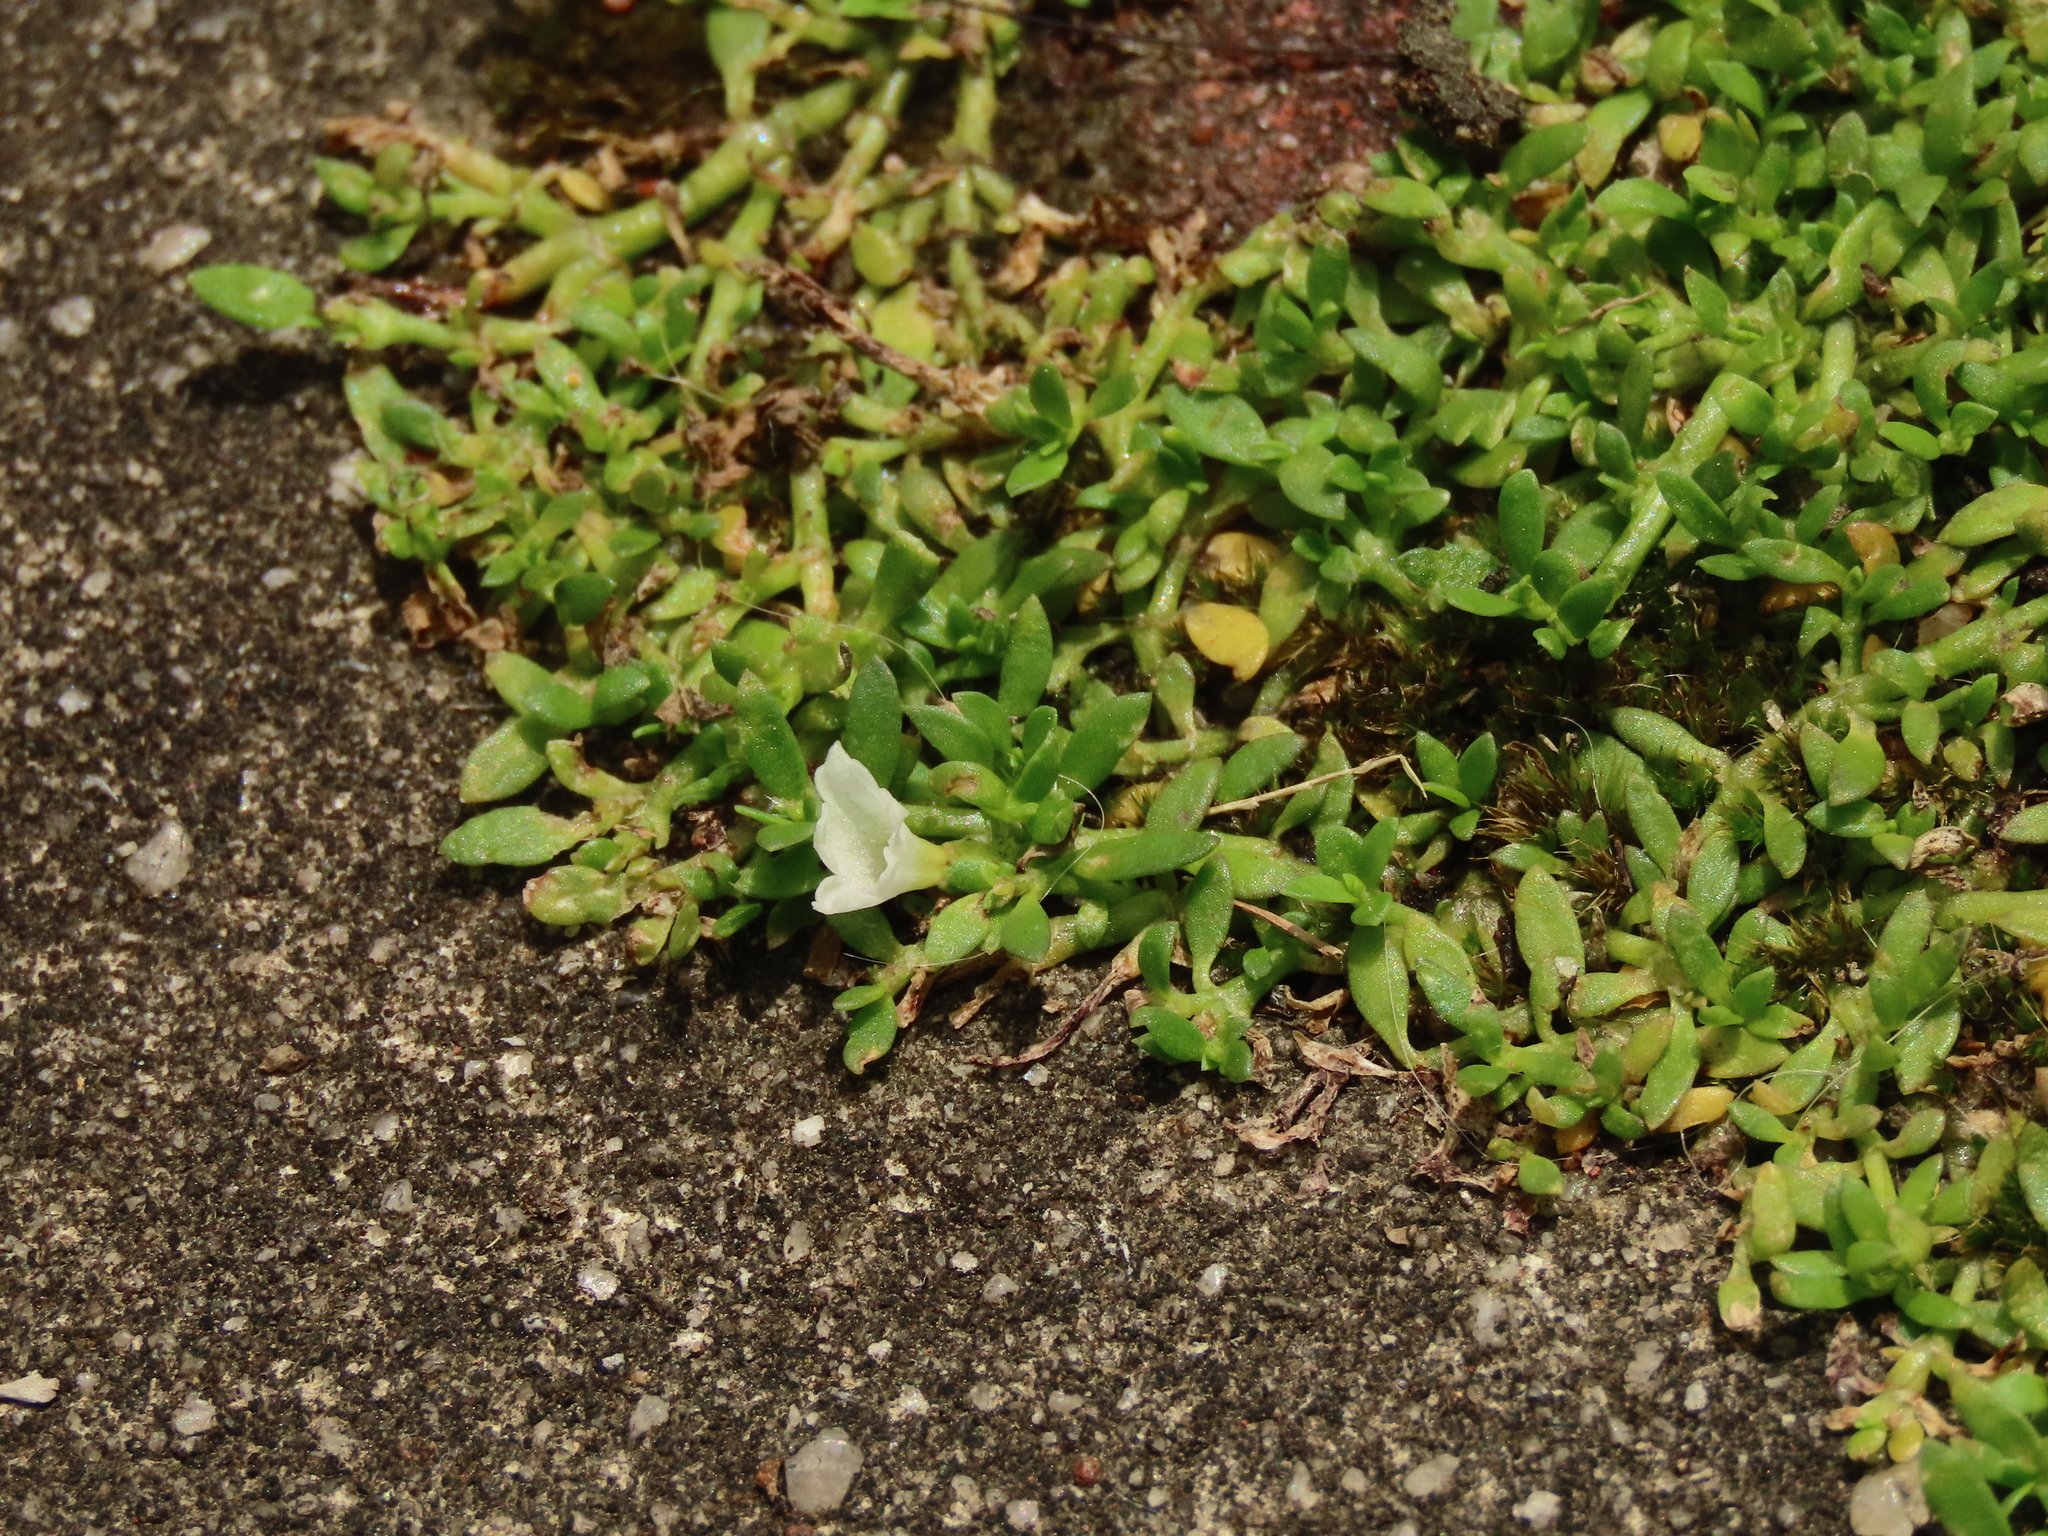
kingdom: Plantae
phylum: Tracheophyta
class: Magnoliopsida
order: Gentianales
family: Rubiaceae
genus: Dentella
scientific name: Dentella repens
